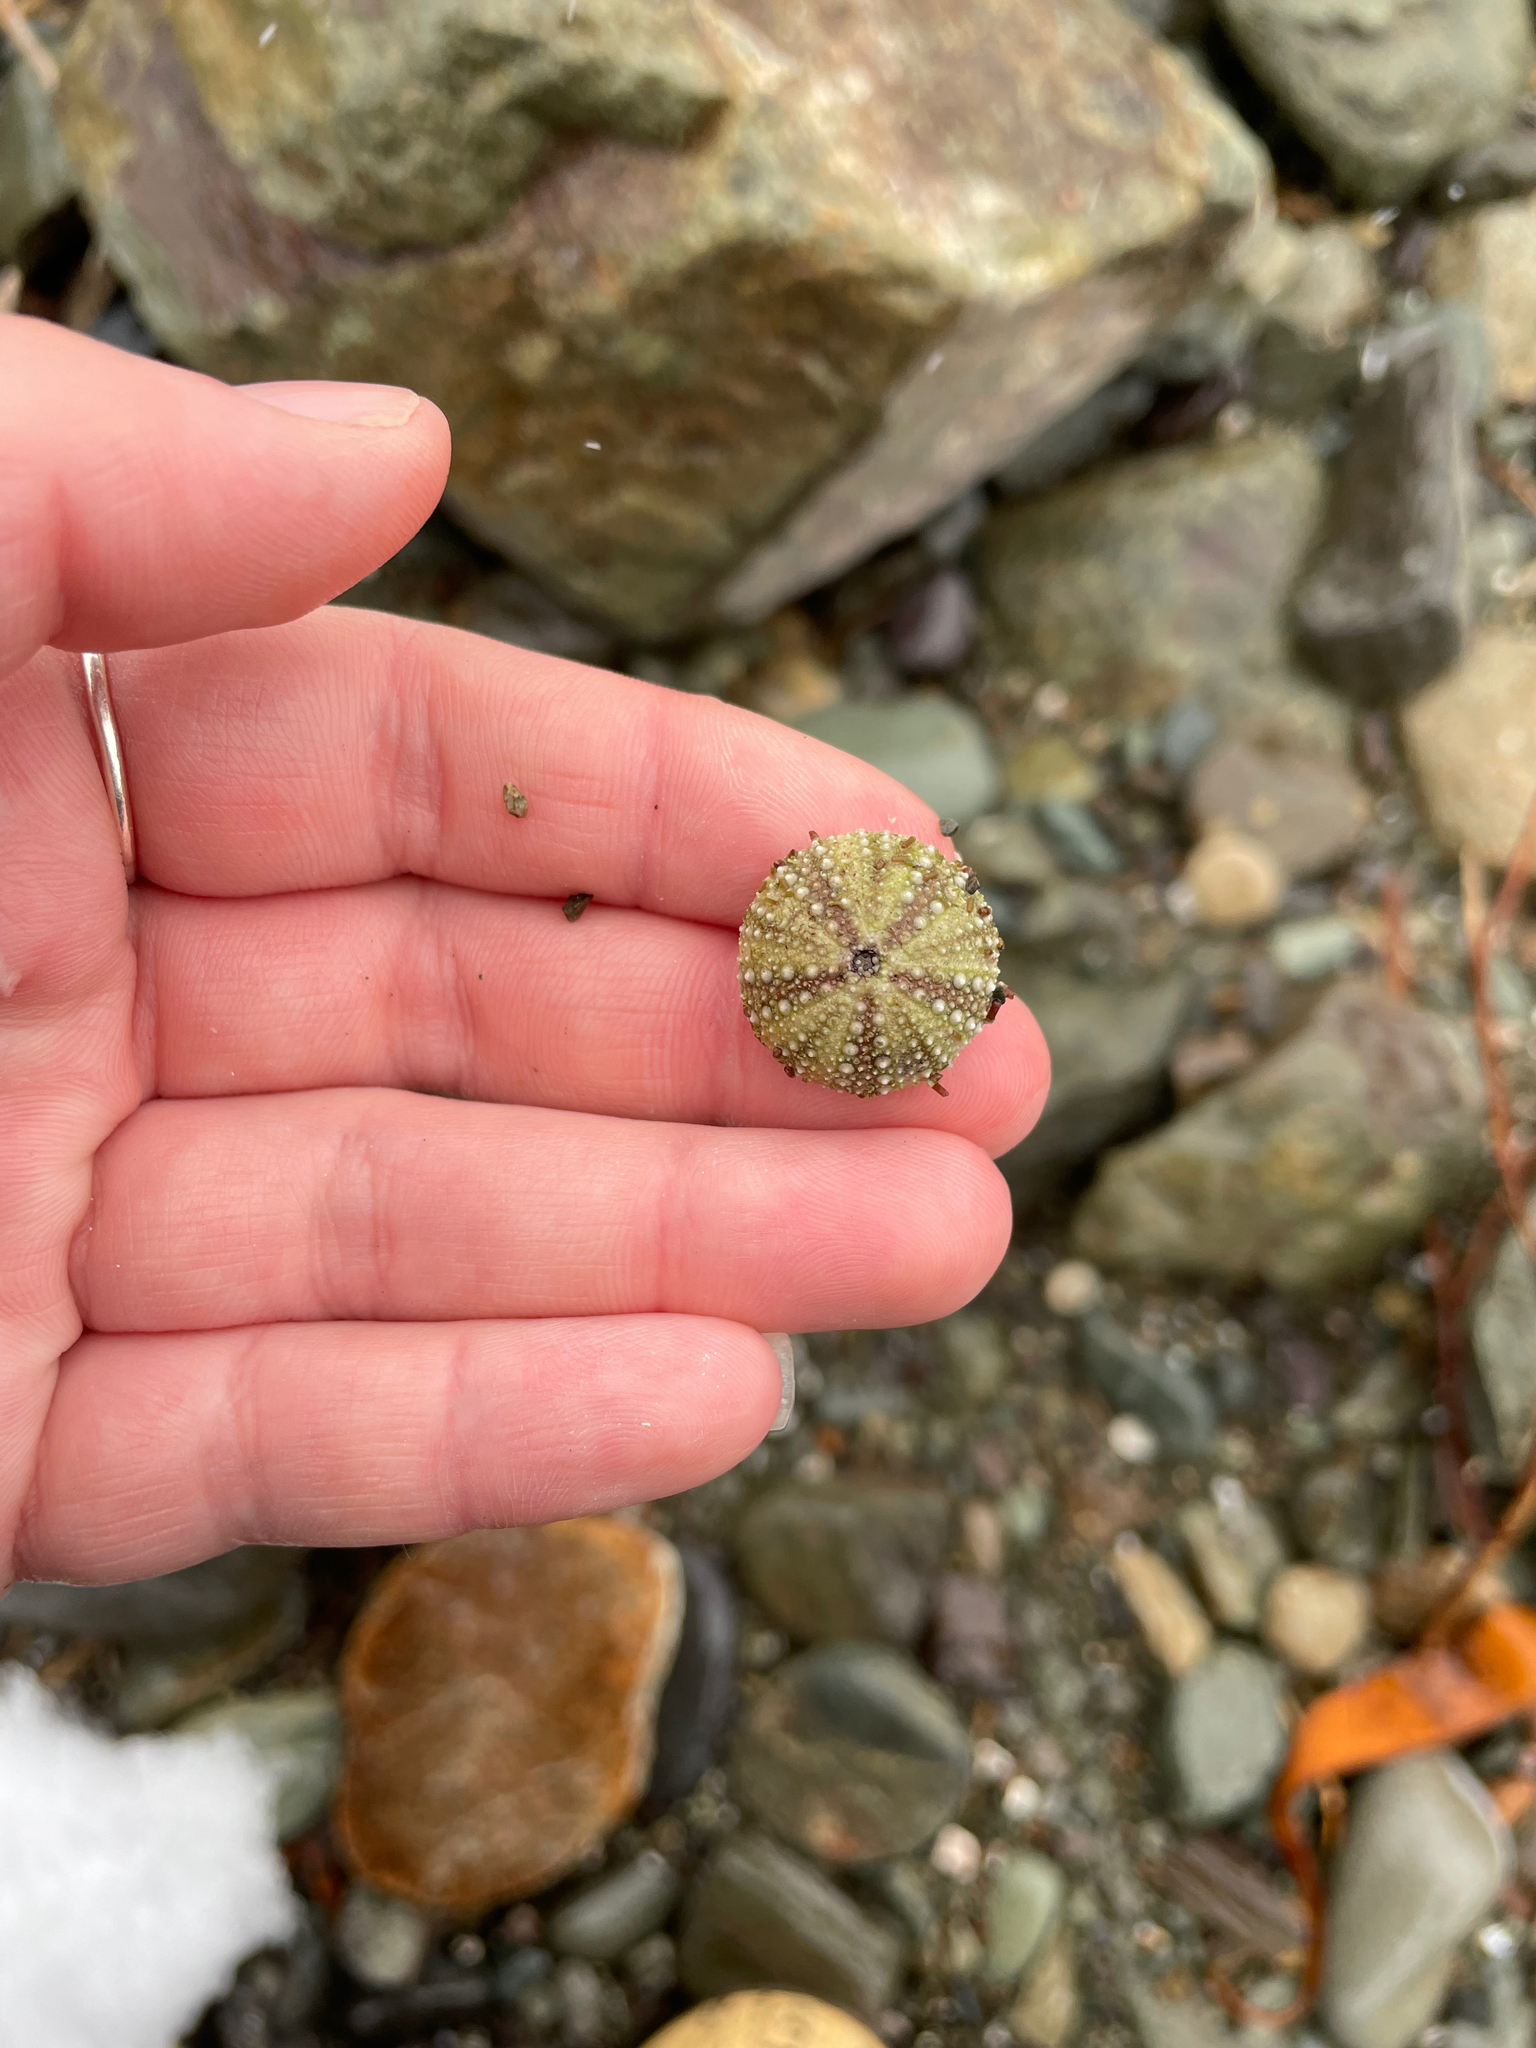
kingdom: Animalia
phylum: Echinodermata
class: Echinoidea
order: Camarodonta
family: Strongylocentrotidae
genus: Strongylocentrotus
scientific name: Strongylocentrotus droebachiensis
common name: Northern sea urchin
